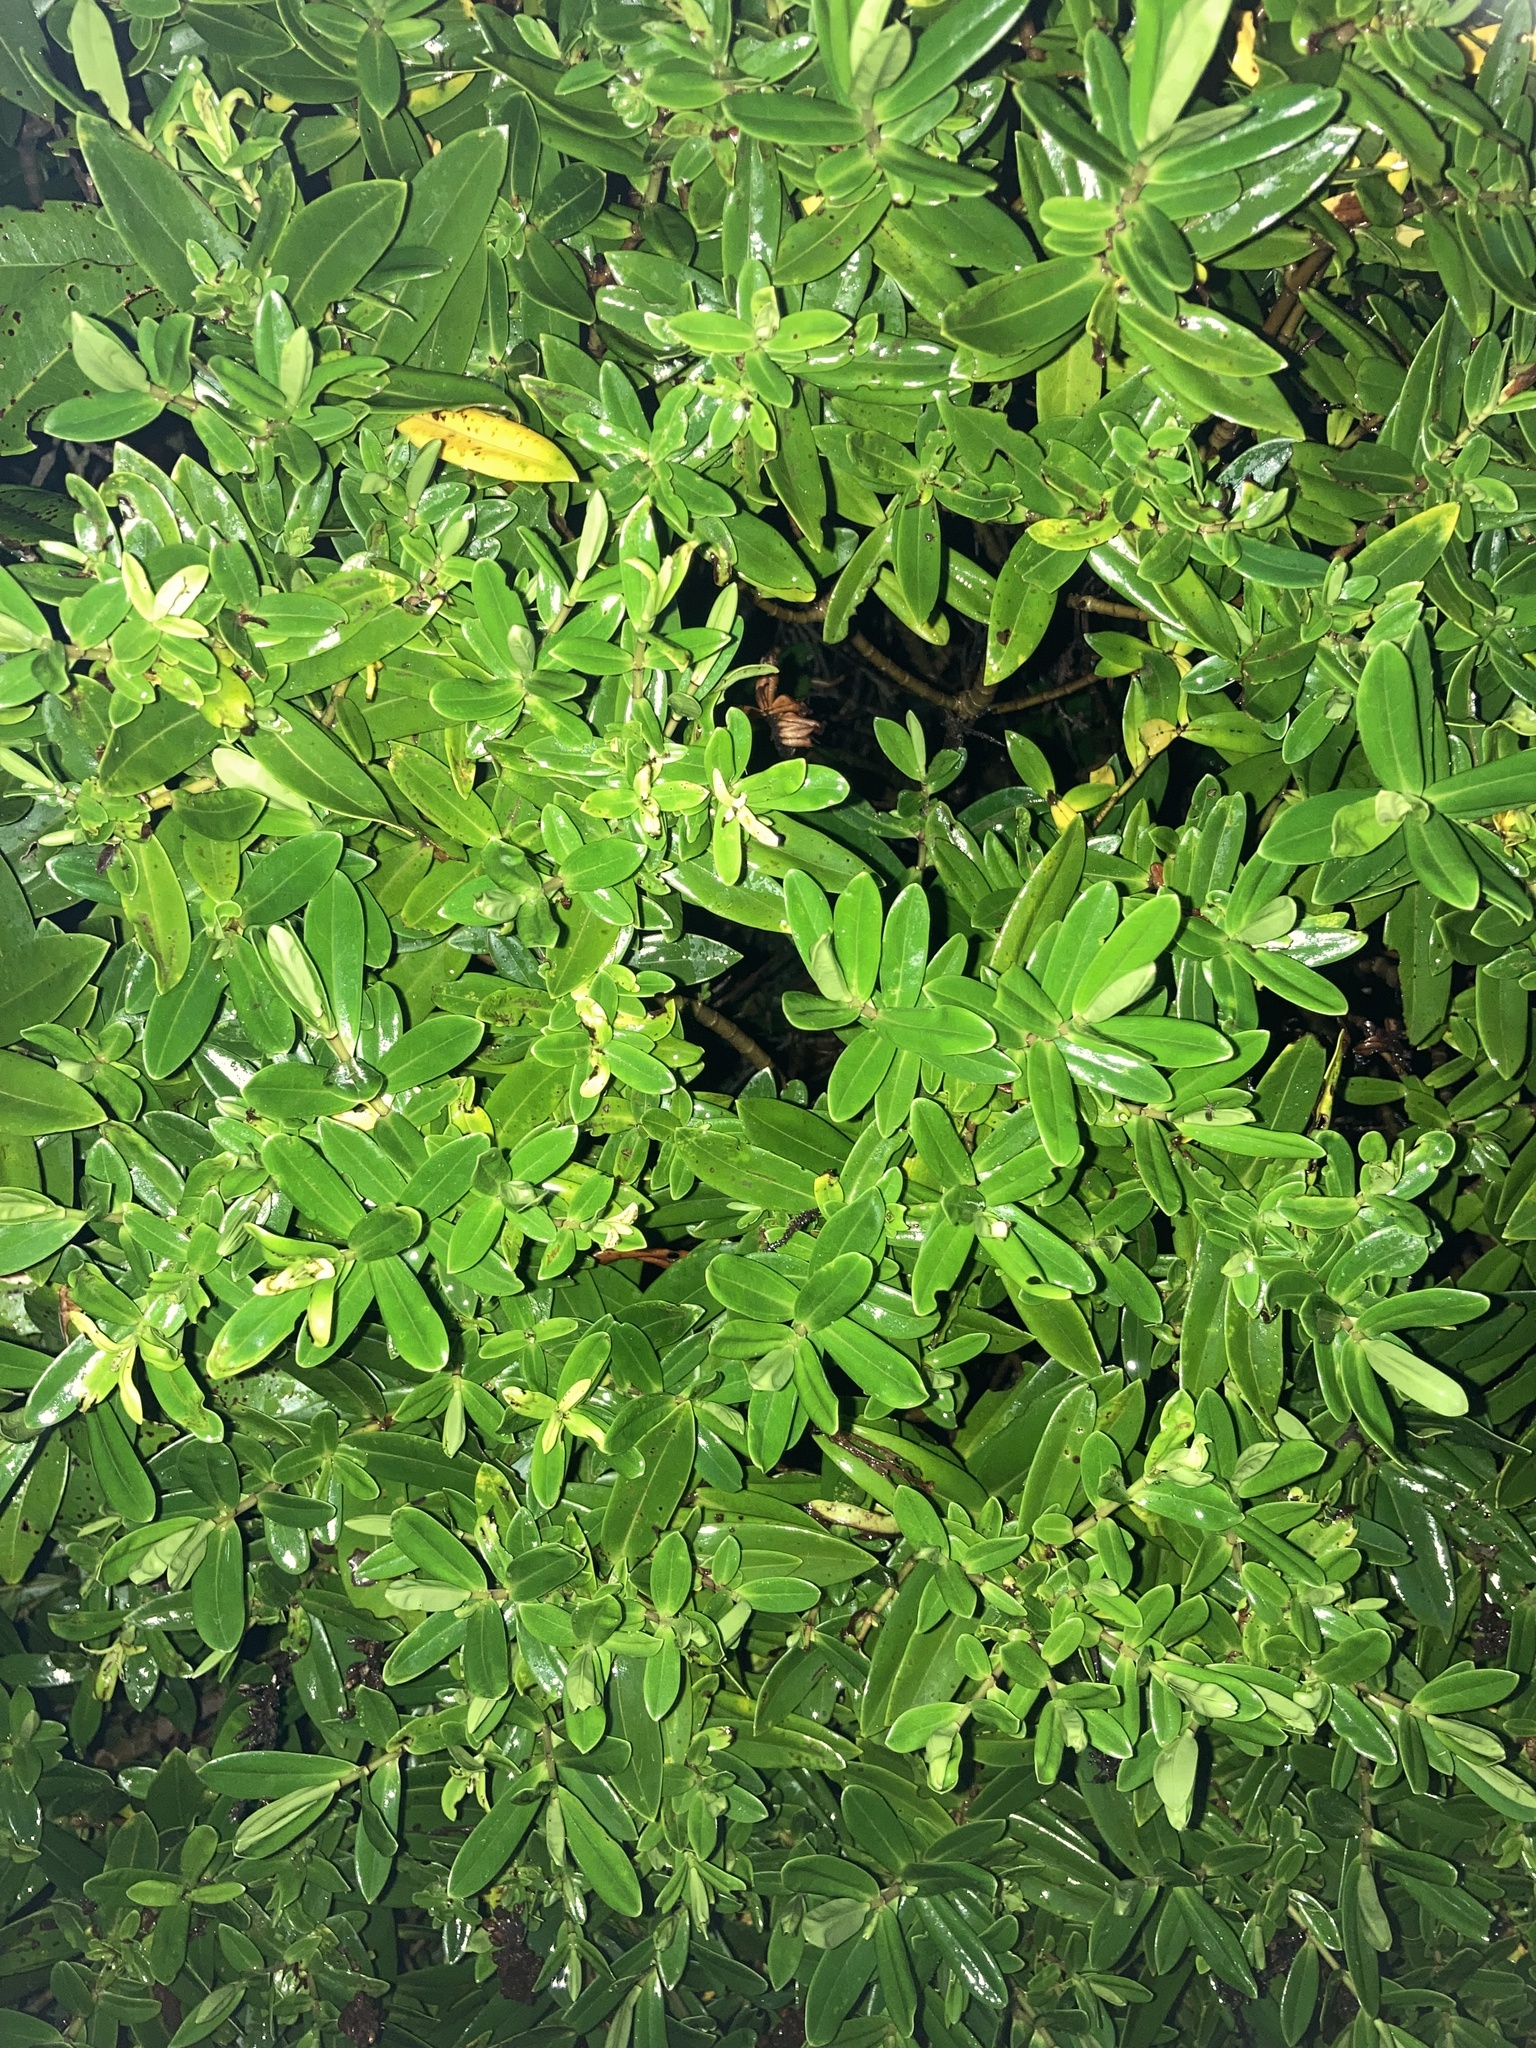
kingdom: Plantae
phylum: Tracheophyta
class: Magnoliopsida
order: Myrtales
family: Myrtaceae
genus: Metrosideros
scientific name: Metrosideros excelsa
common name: New zealand christmastree
